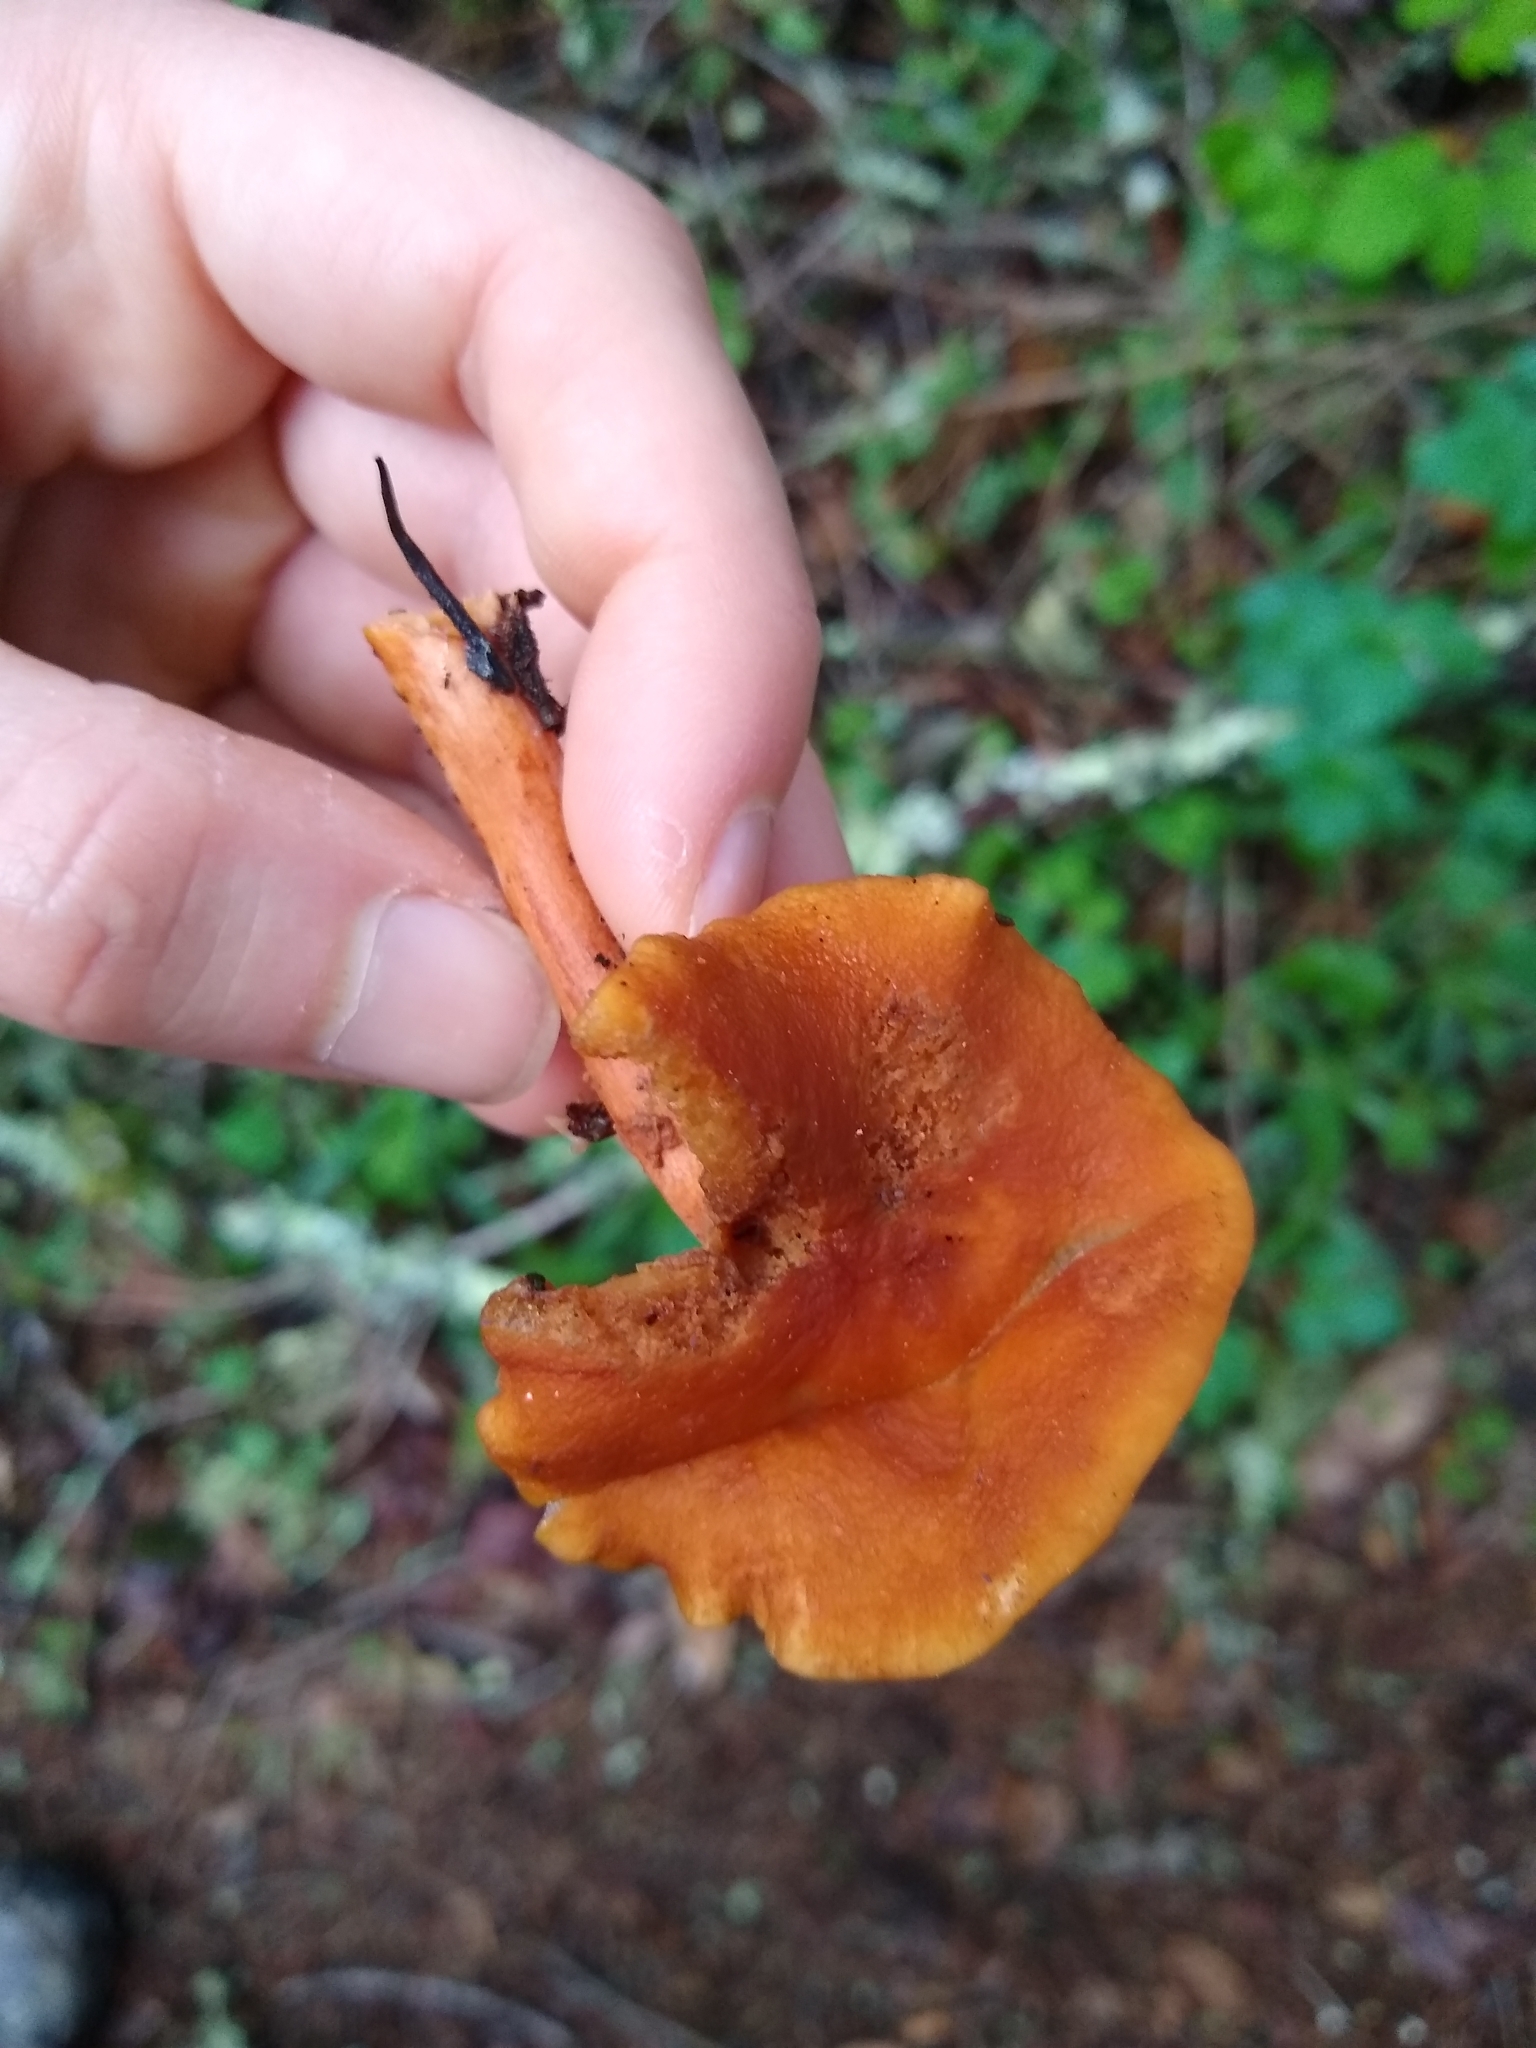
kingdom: Fungi
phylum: Basidiomycota
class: Agaricomycetes
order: Russulales
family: Russulaceae
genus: Lactarius
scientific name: Lactarius rubidus
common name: Candy cap
